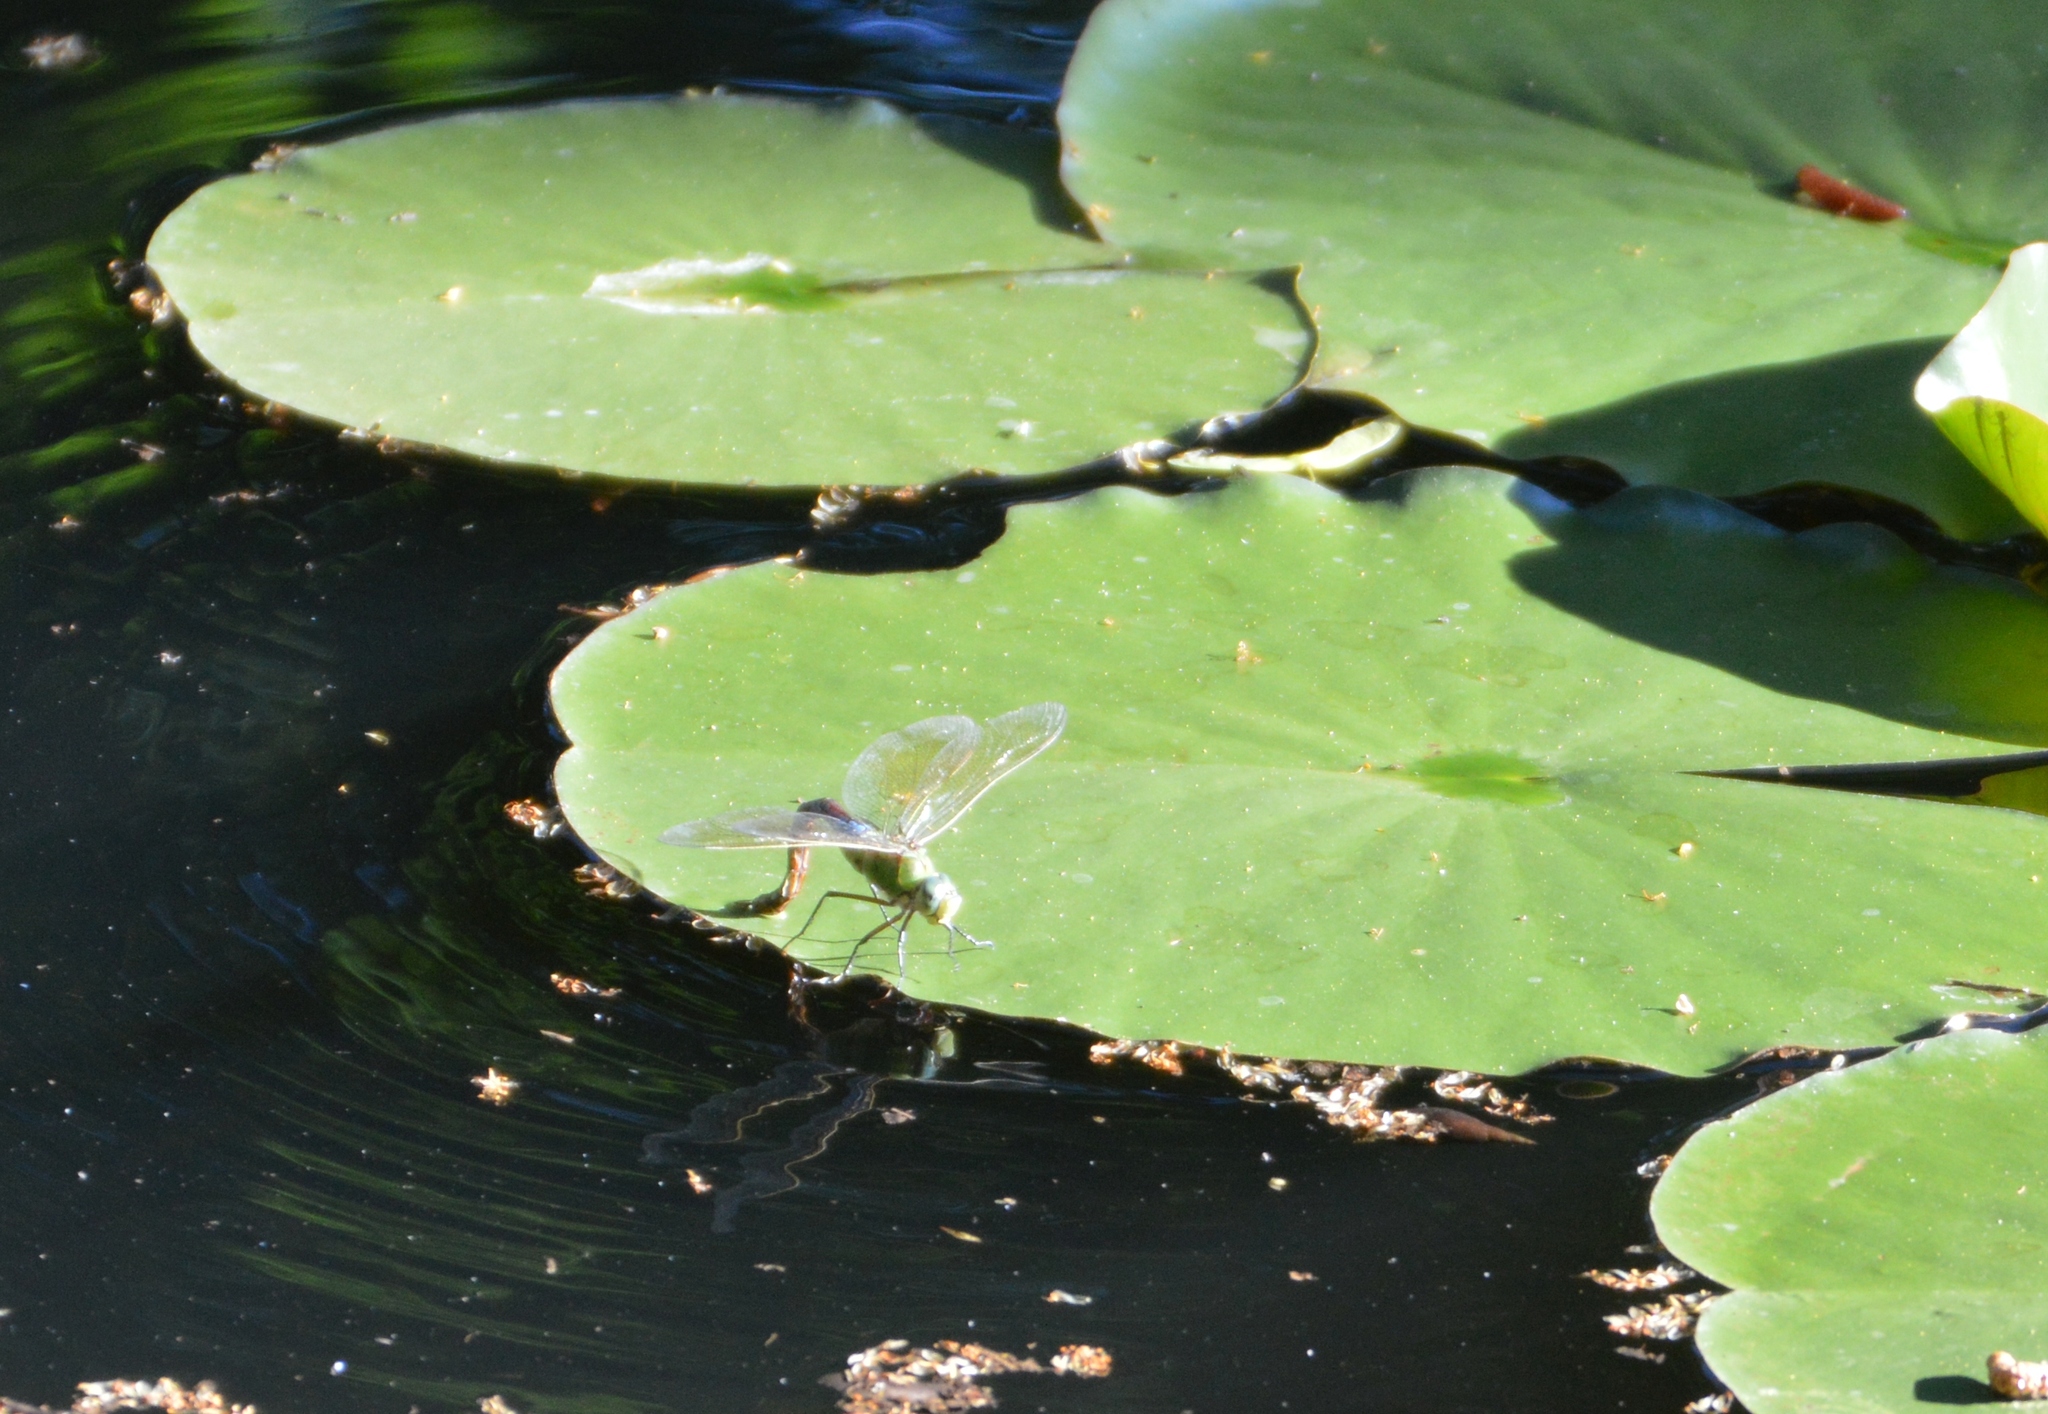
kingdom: Animalia
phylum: Arthropoda
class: Insecta
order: Odonata
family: Aeshnidae
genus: Anax
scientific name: Anax imperator
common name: Emperor dragonfly
